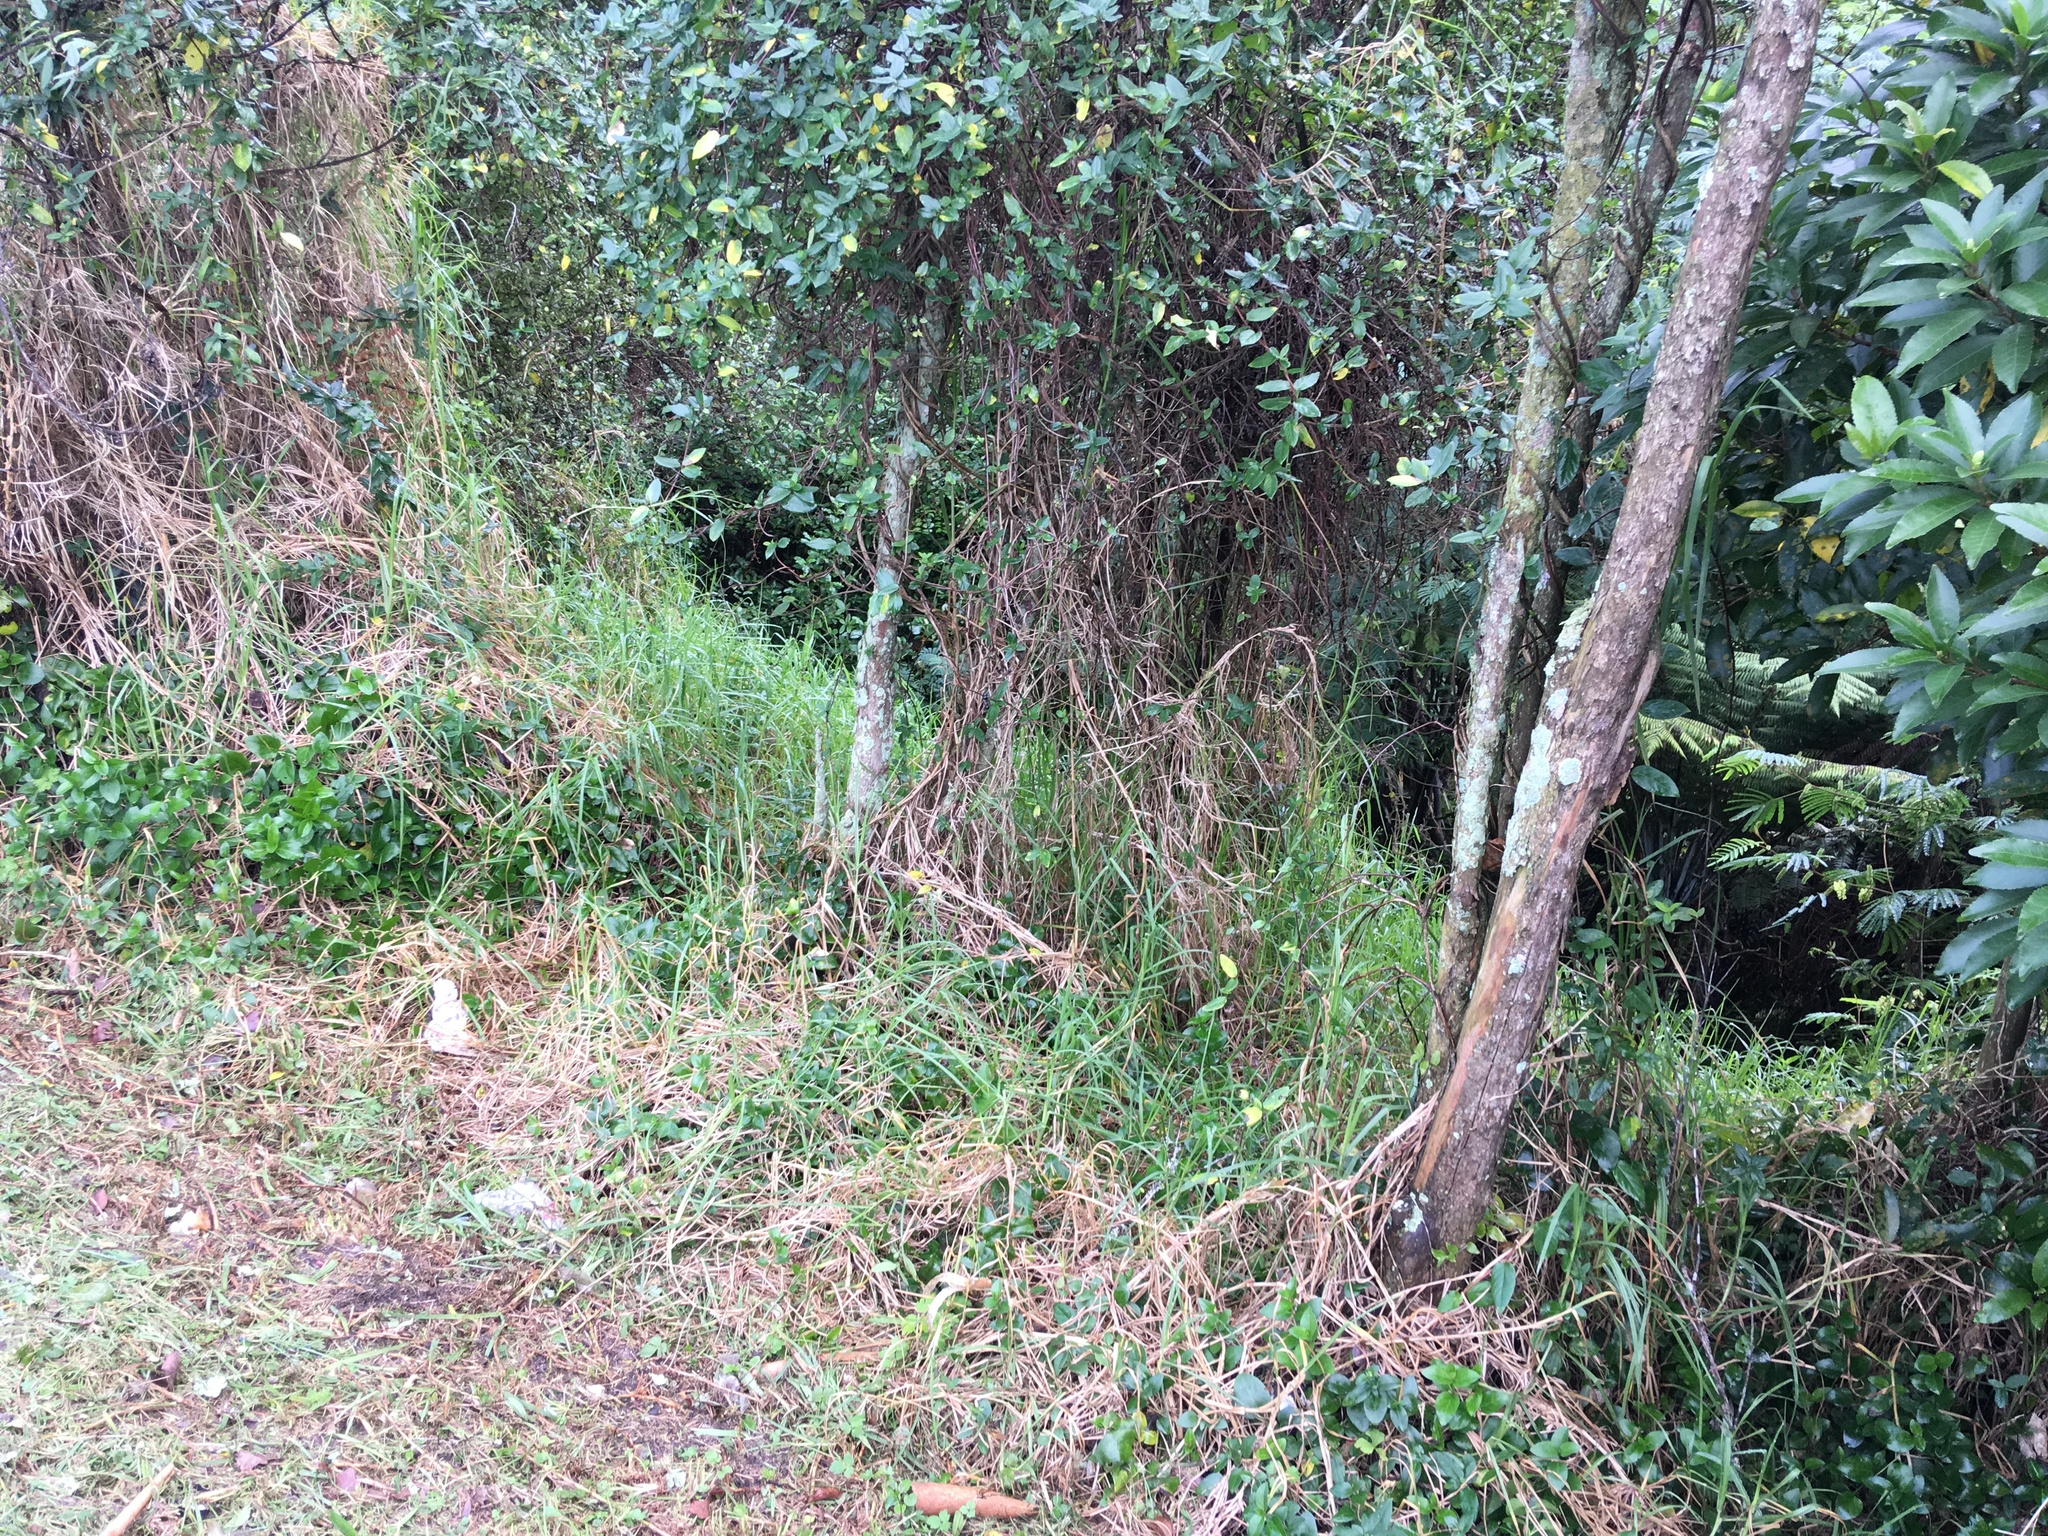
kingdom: Plantae
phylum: Tracheophyta
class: Liliopsida
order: Poales
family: Poaceae
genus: Cenchrus
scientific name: Cenchrus clandestinus
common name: Kikuyugrass
